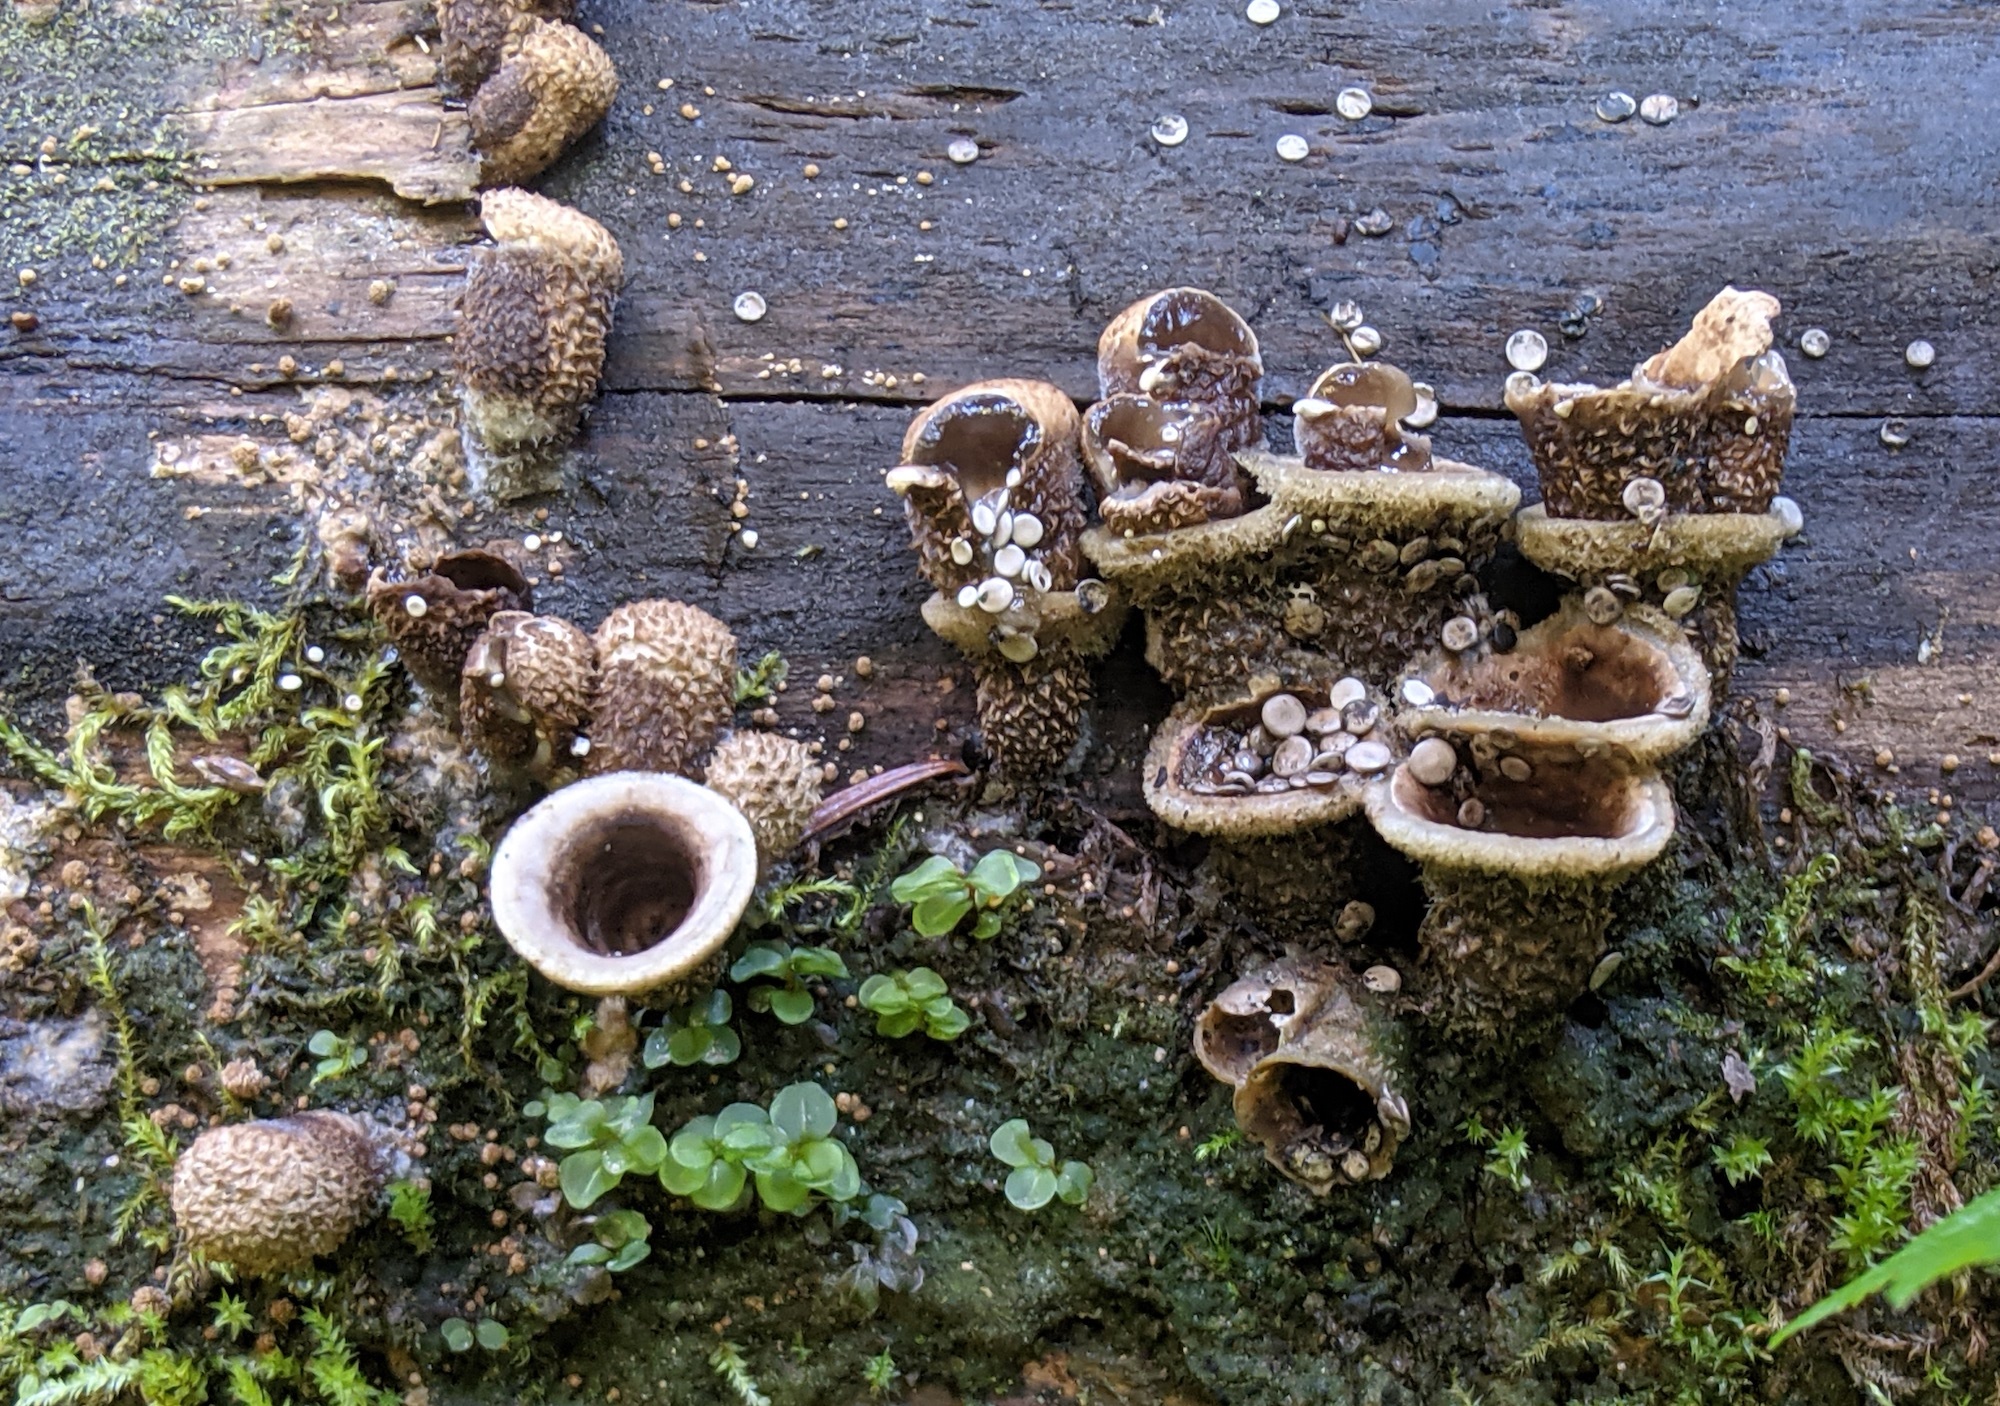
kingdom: Fungi
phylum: Basidiomycota
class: Agaricomycetes
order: Agaricales
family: Agaricaceae
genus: Nidula
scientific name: Nidula candida
